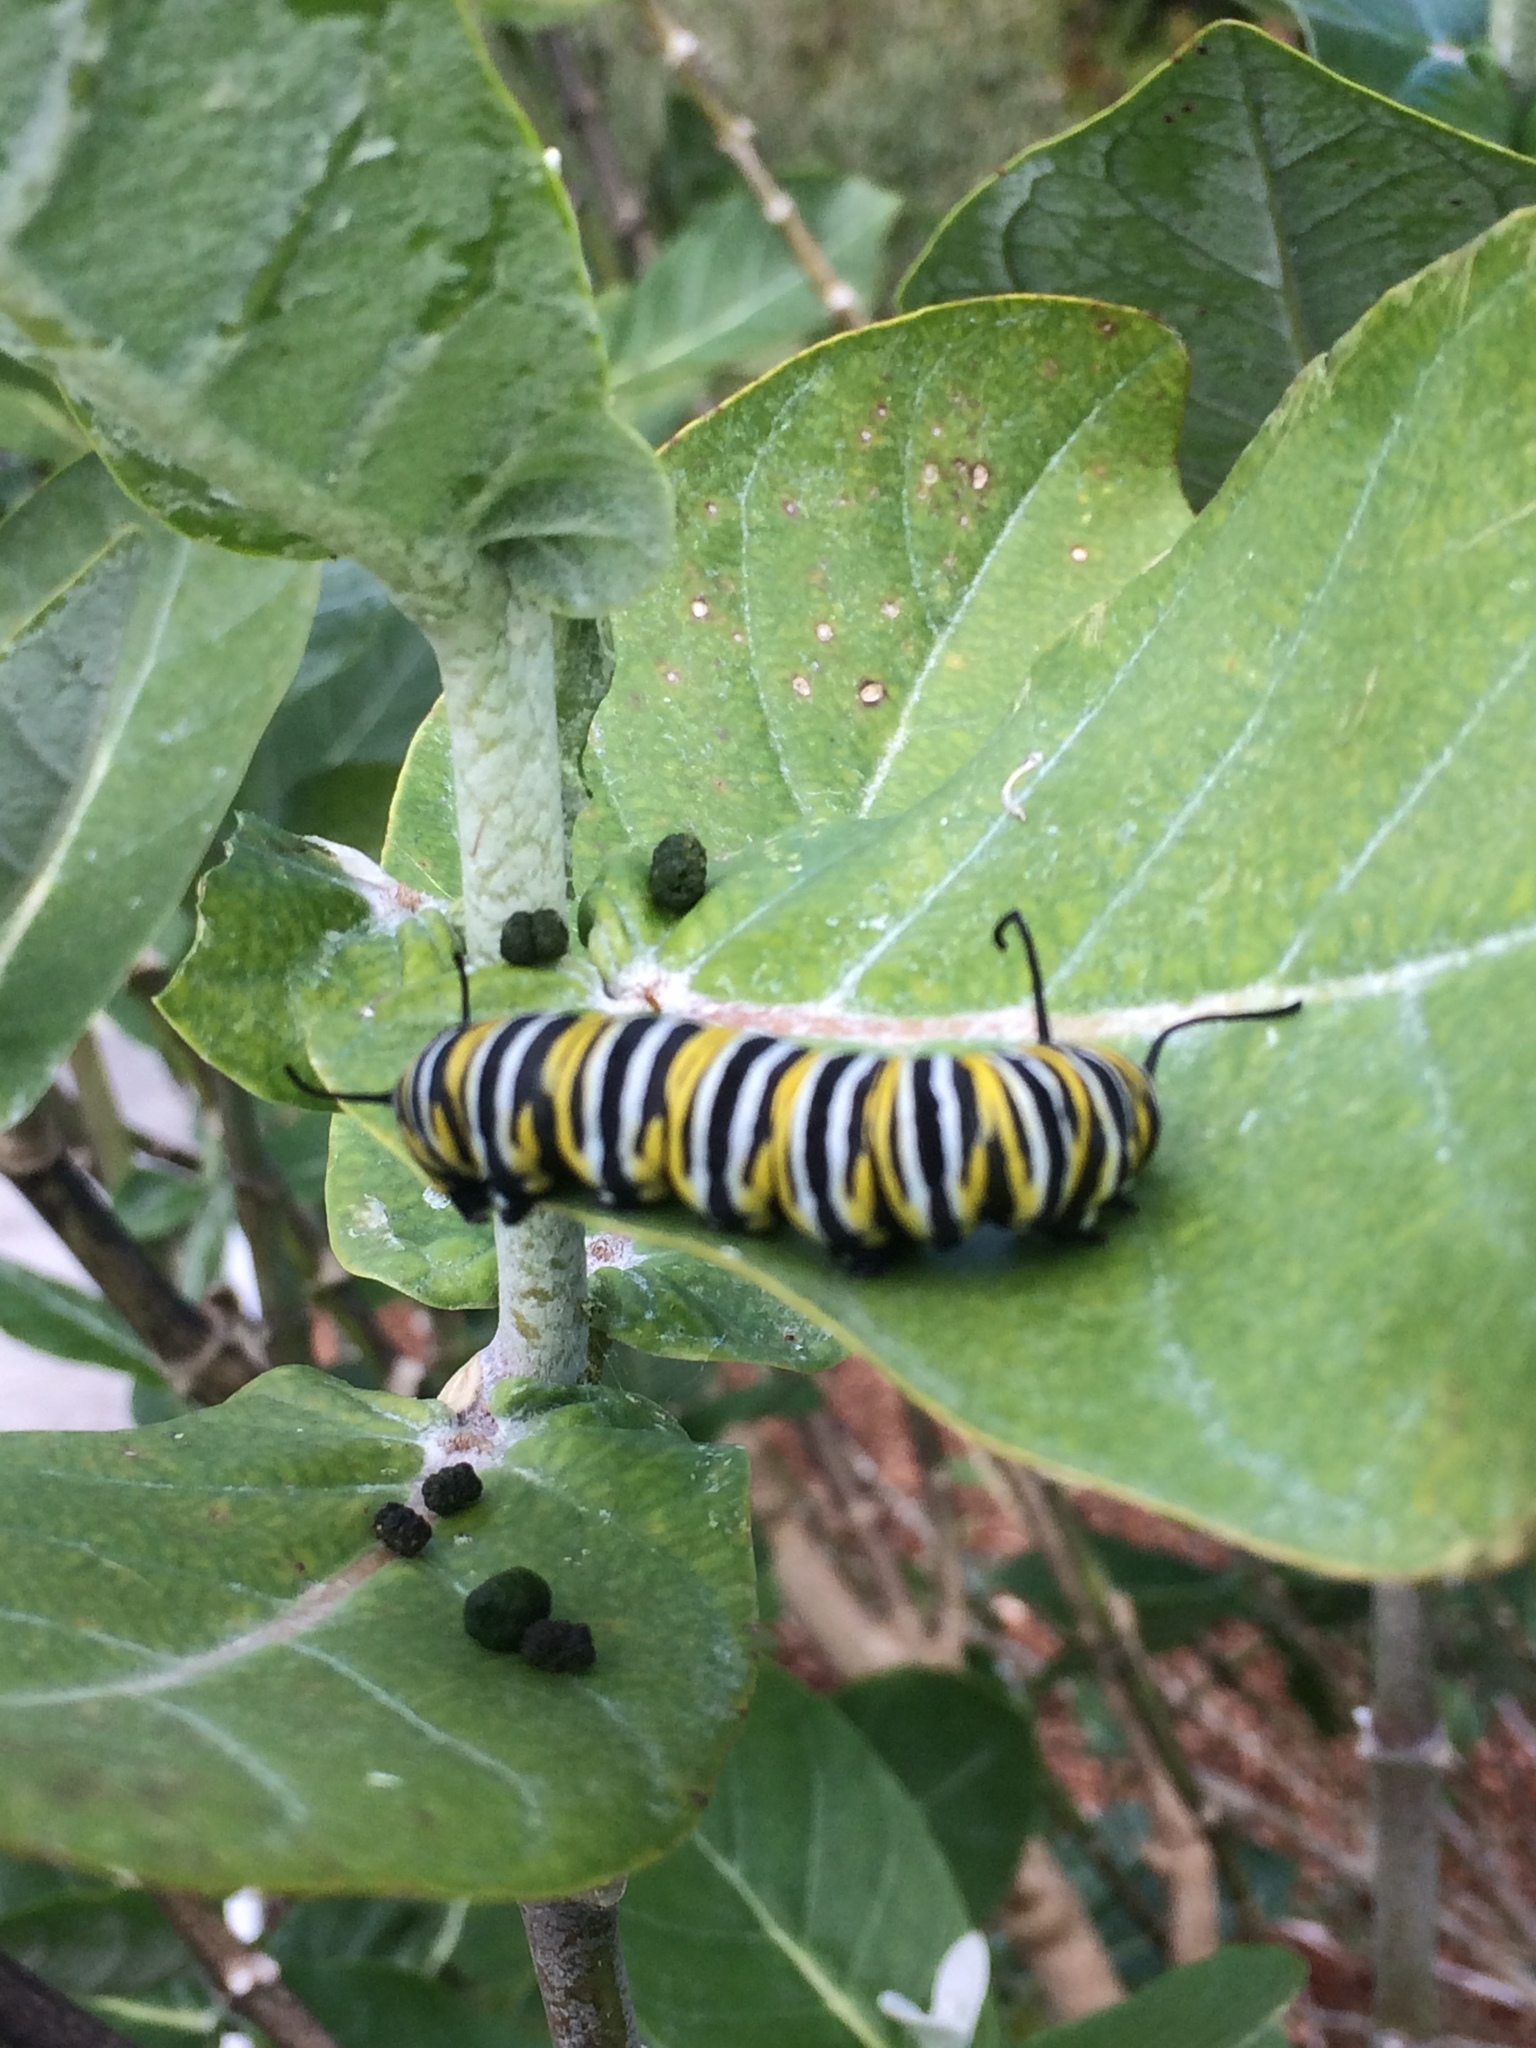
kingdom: Animalia
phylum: Arthropoda
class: Insecta
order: Lepidoptera
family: Nymphalidae
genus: Danaus
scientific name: Danaus plexippus
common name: Monarch
